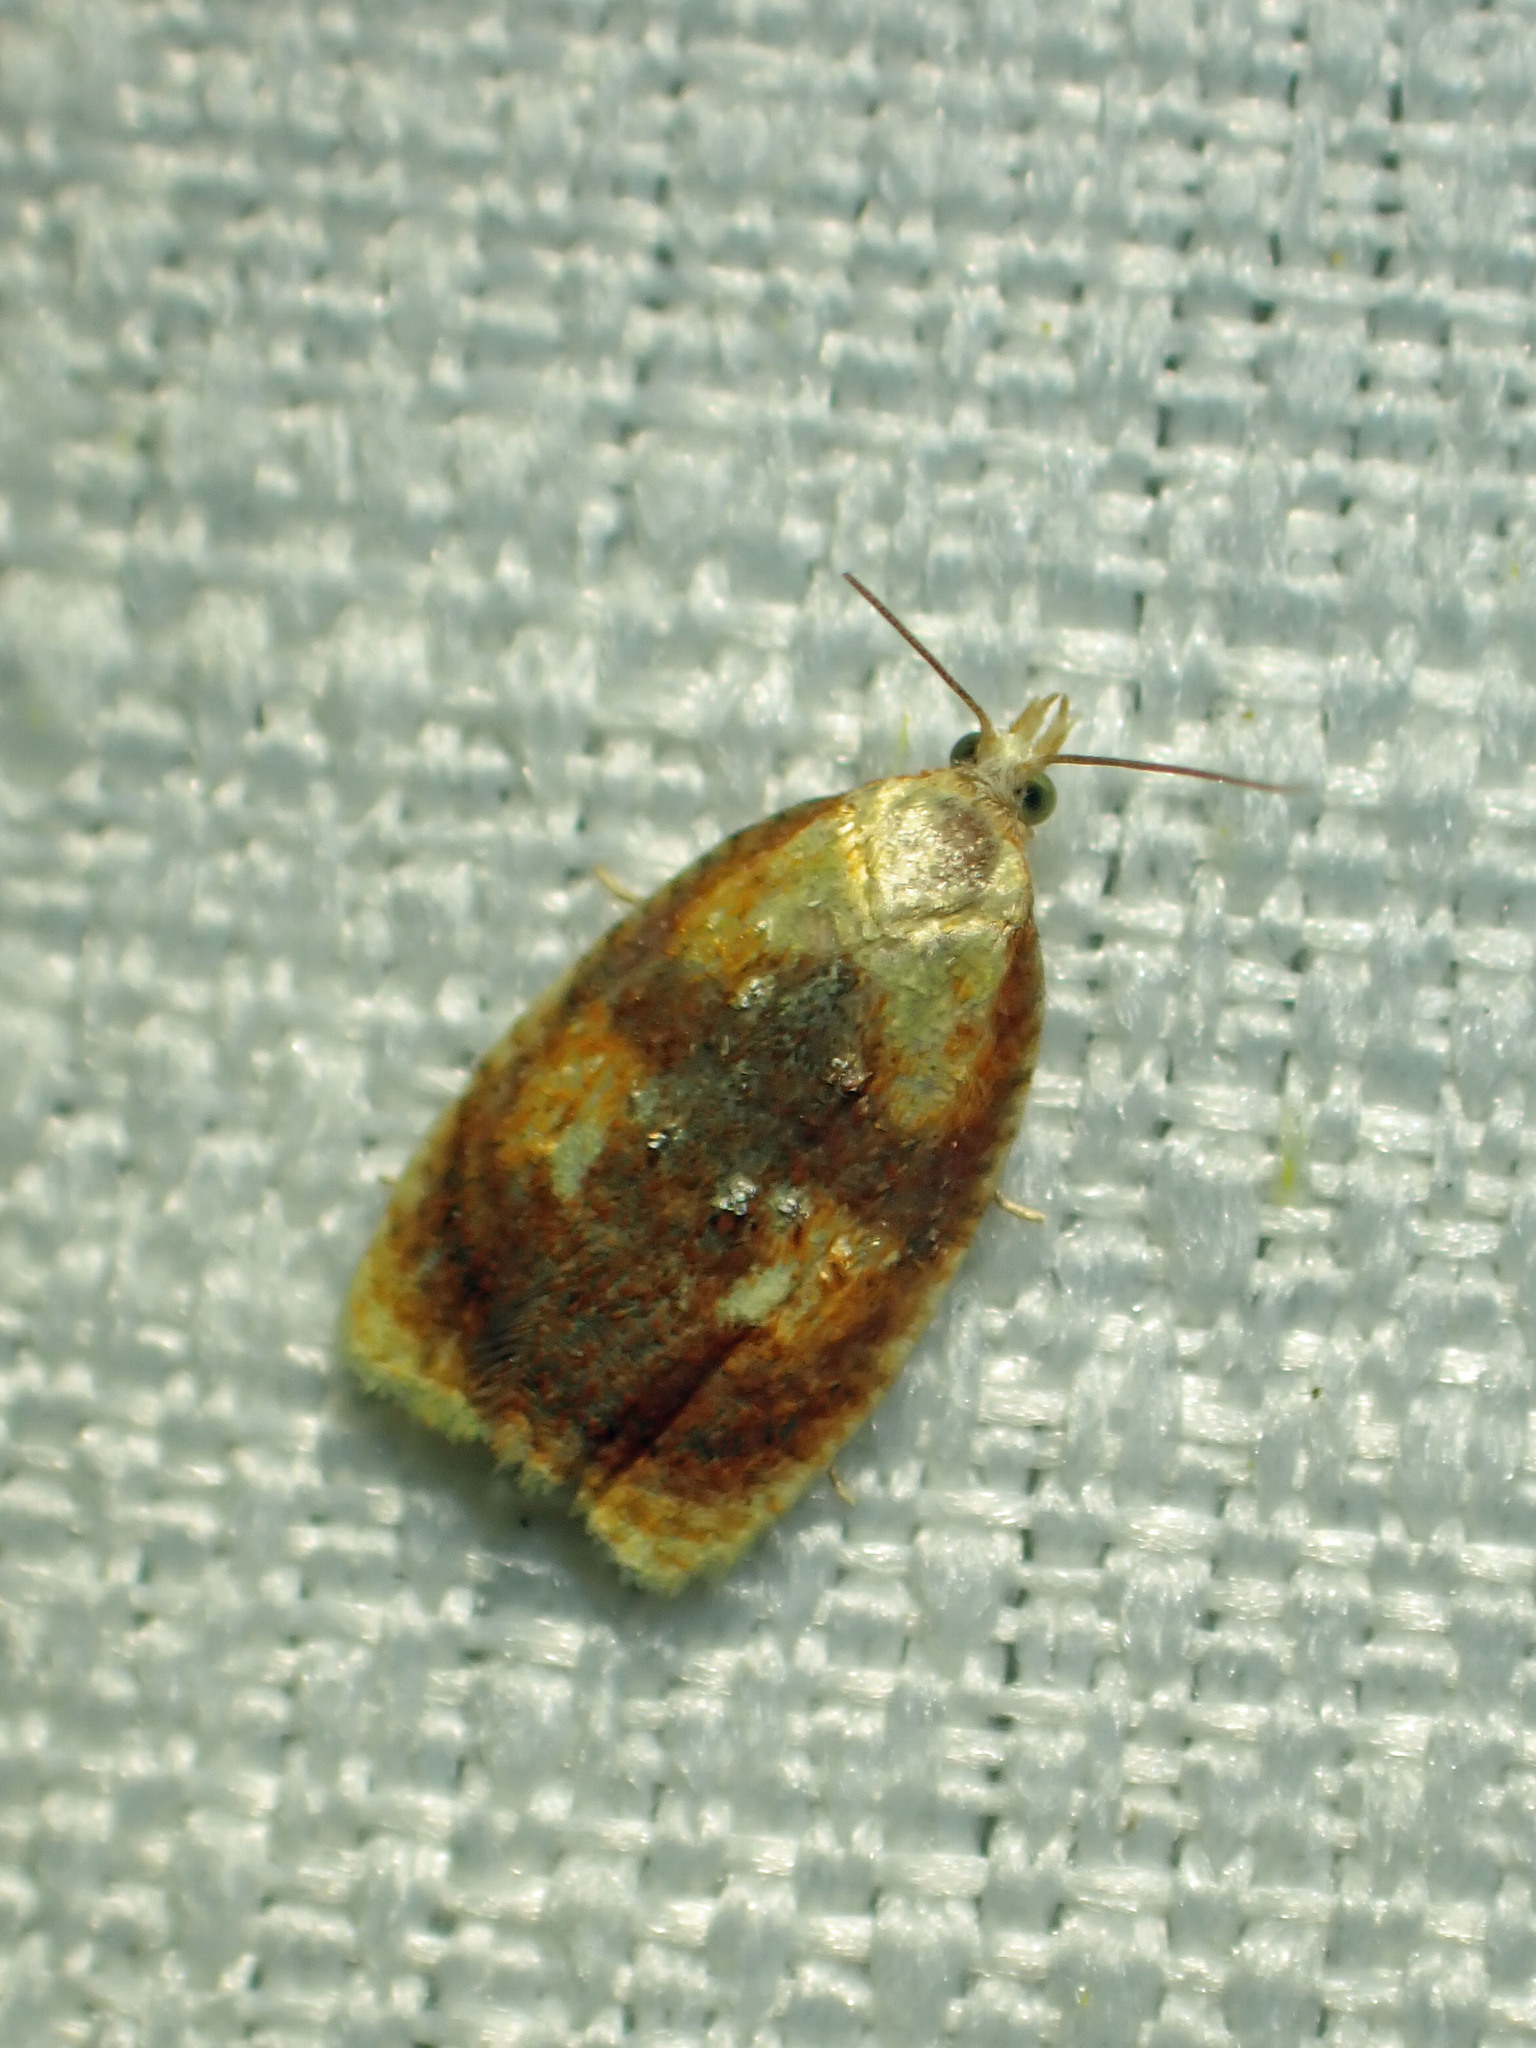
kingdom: Animalia
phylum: Arthropoda
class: Insecta
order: Lepidoptera
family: Tortricidae
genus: Acleris
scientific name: Acleris curvalana
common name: Blueberry leaftier moth
